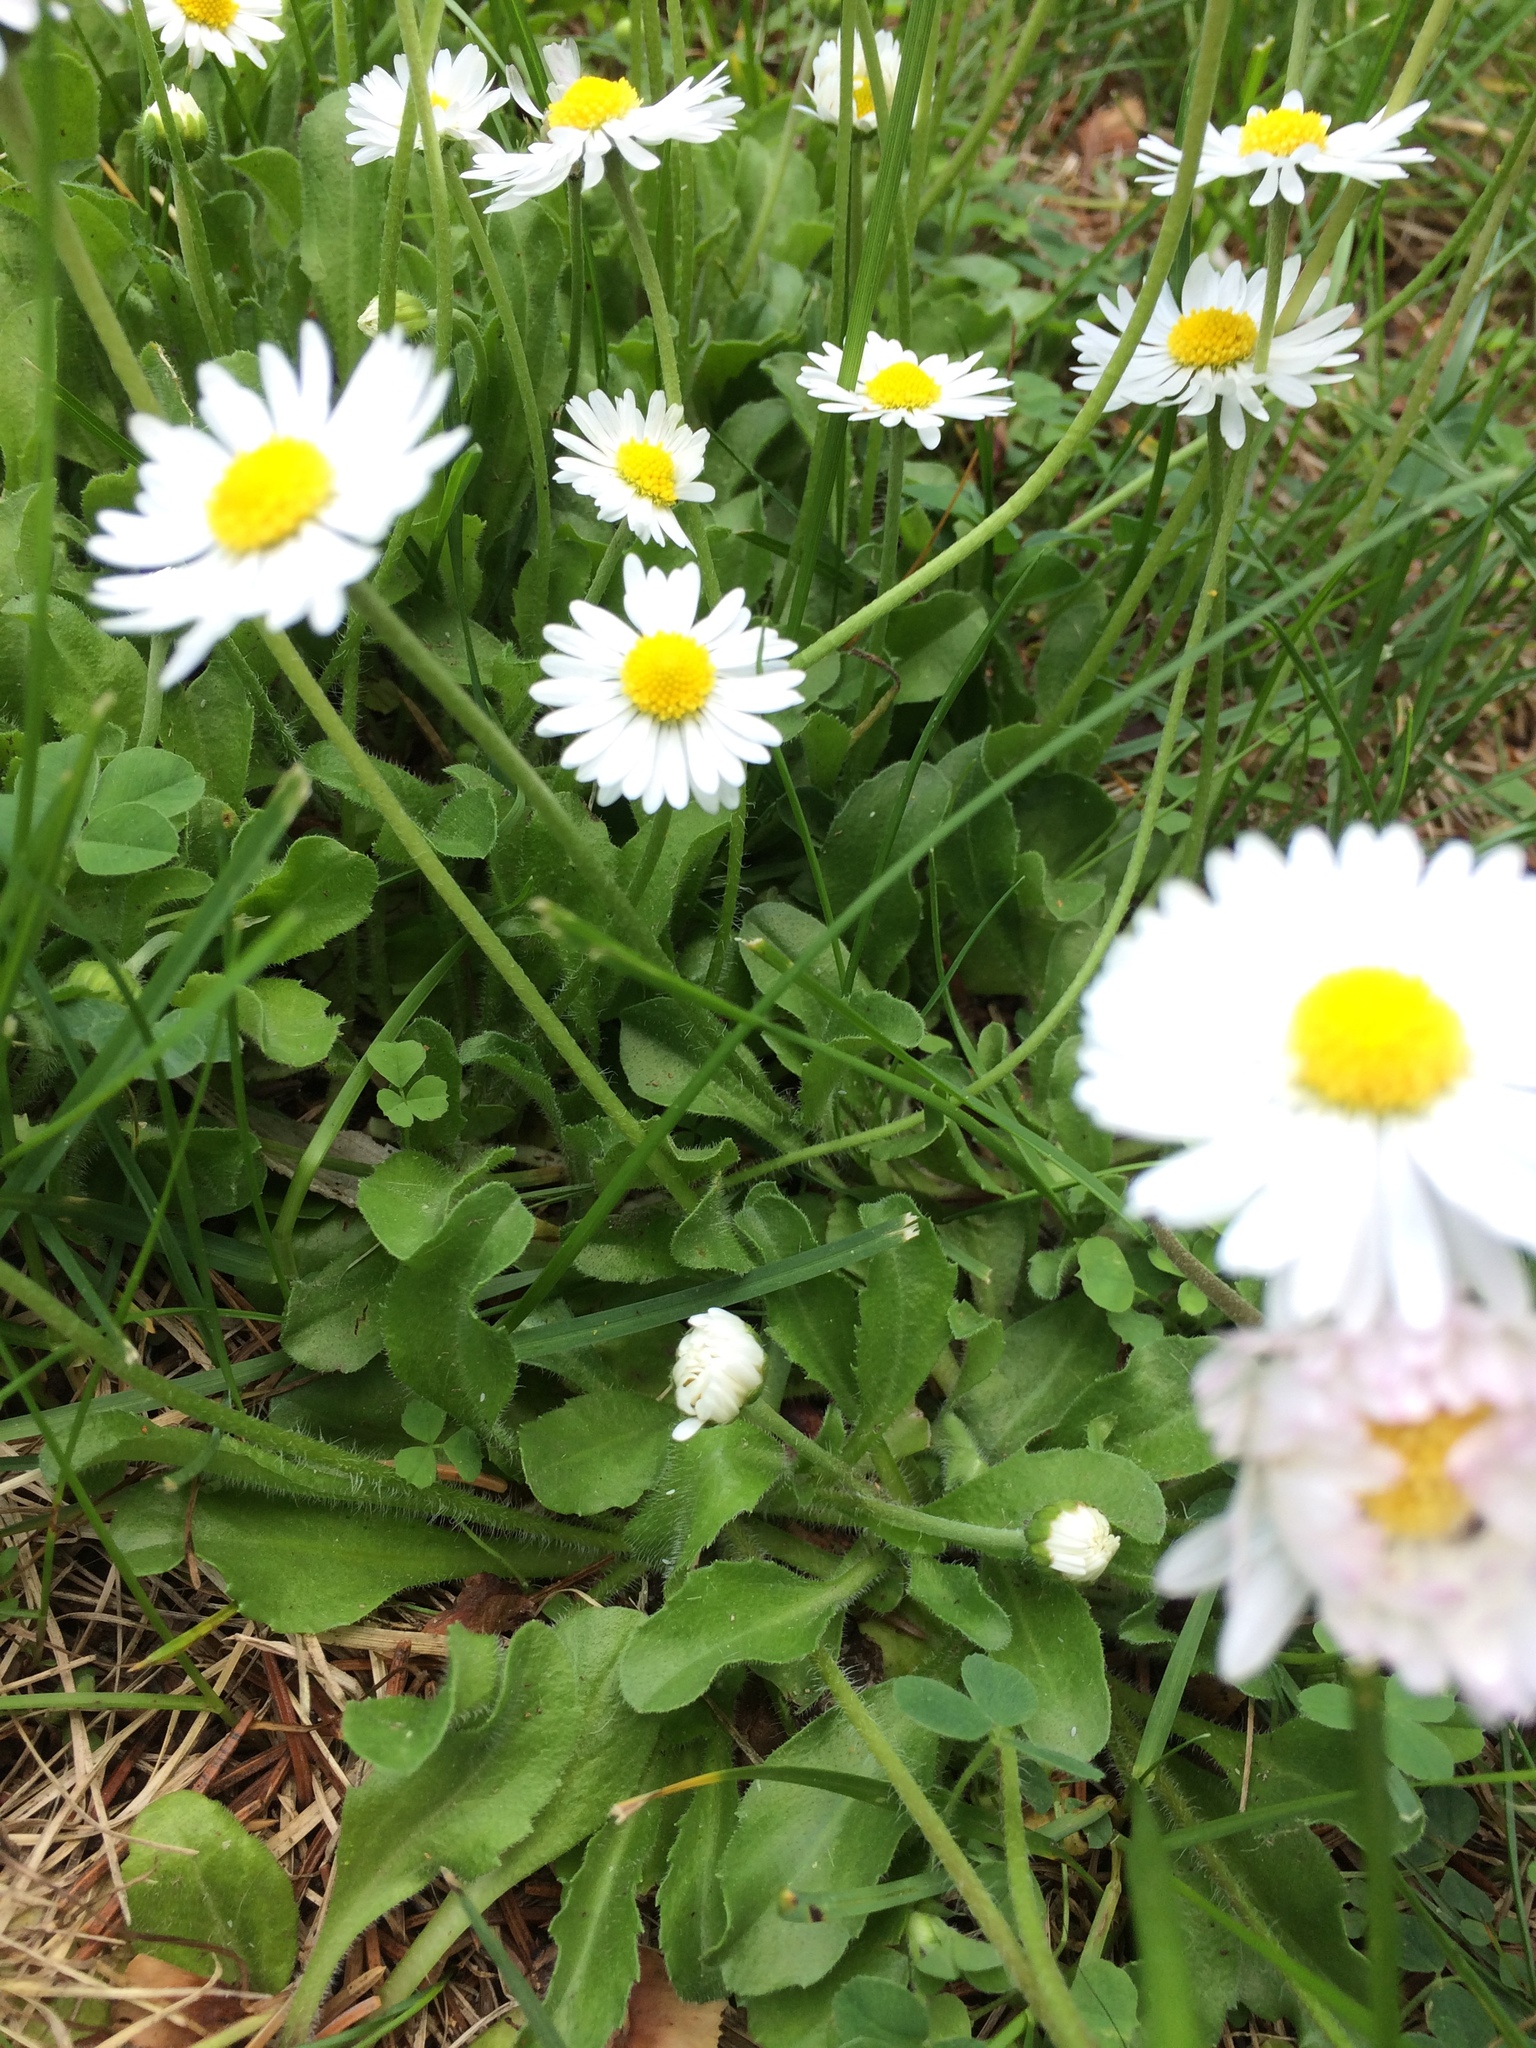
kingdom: Plantae
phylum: Tracheophyta
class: Magnoliopsida
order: Asterales
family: Asteraceae
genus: Bellis
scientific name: Bellis perennis
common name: Lawndaisy
